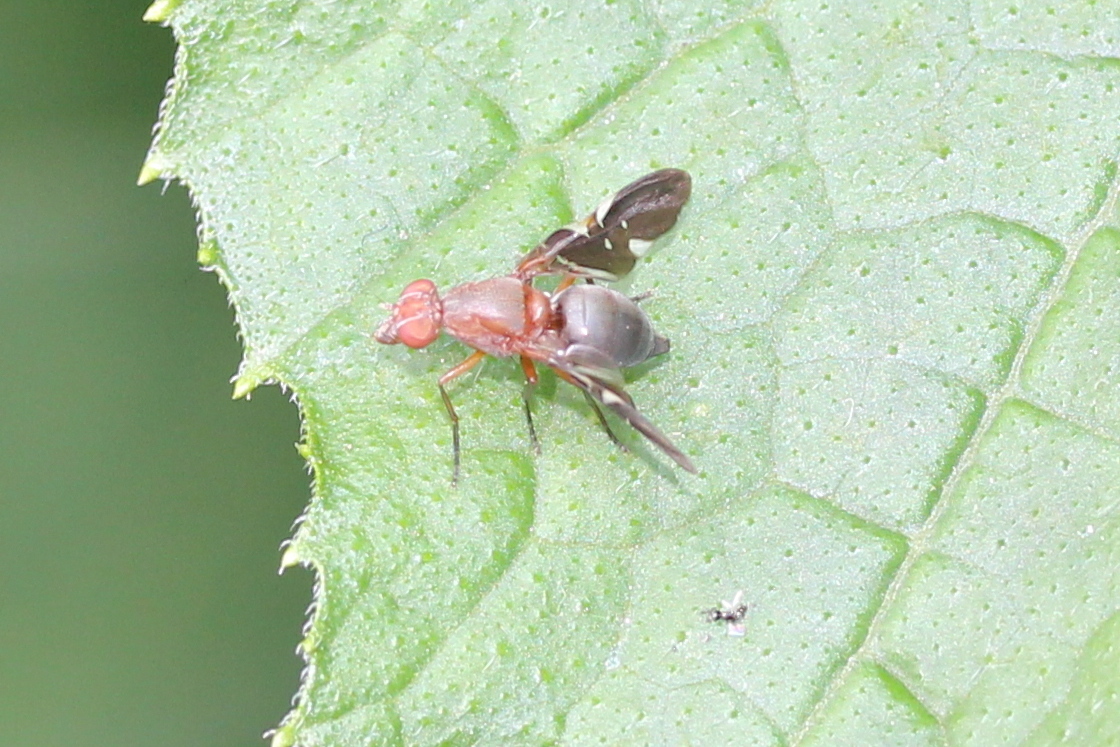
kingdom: Animalia
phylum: Arthropoda
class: Insecta
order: Diptera
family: Ulidiidae
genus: Delphinia
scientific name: Delphinia picta
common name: Common picture-winged fly
